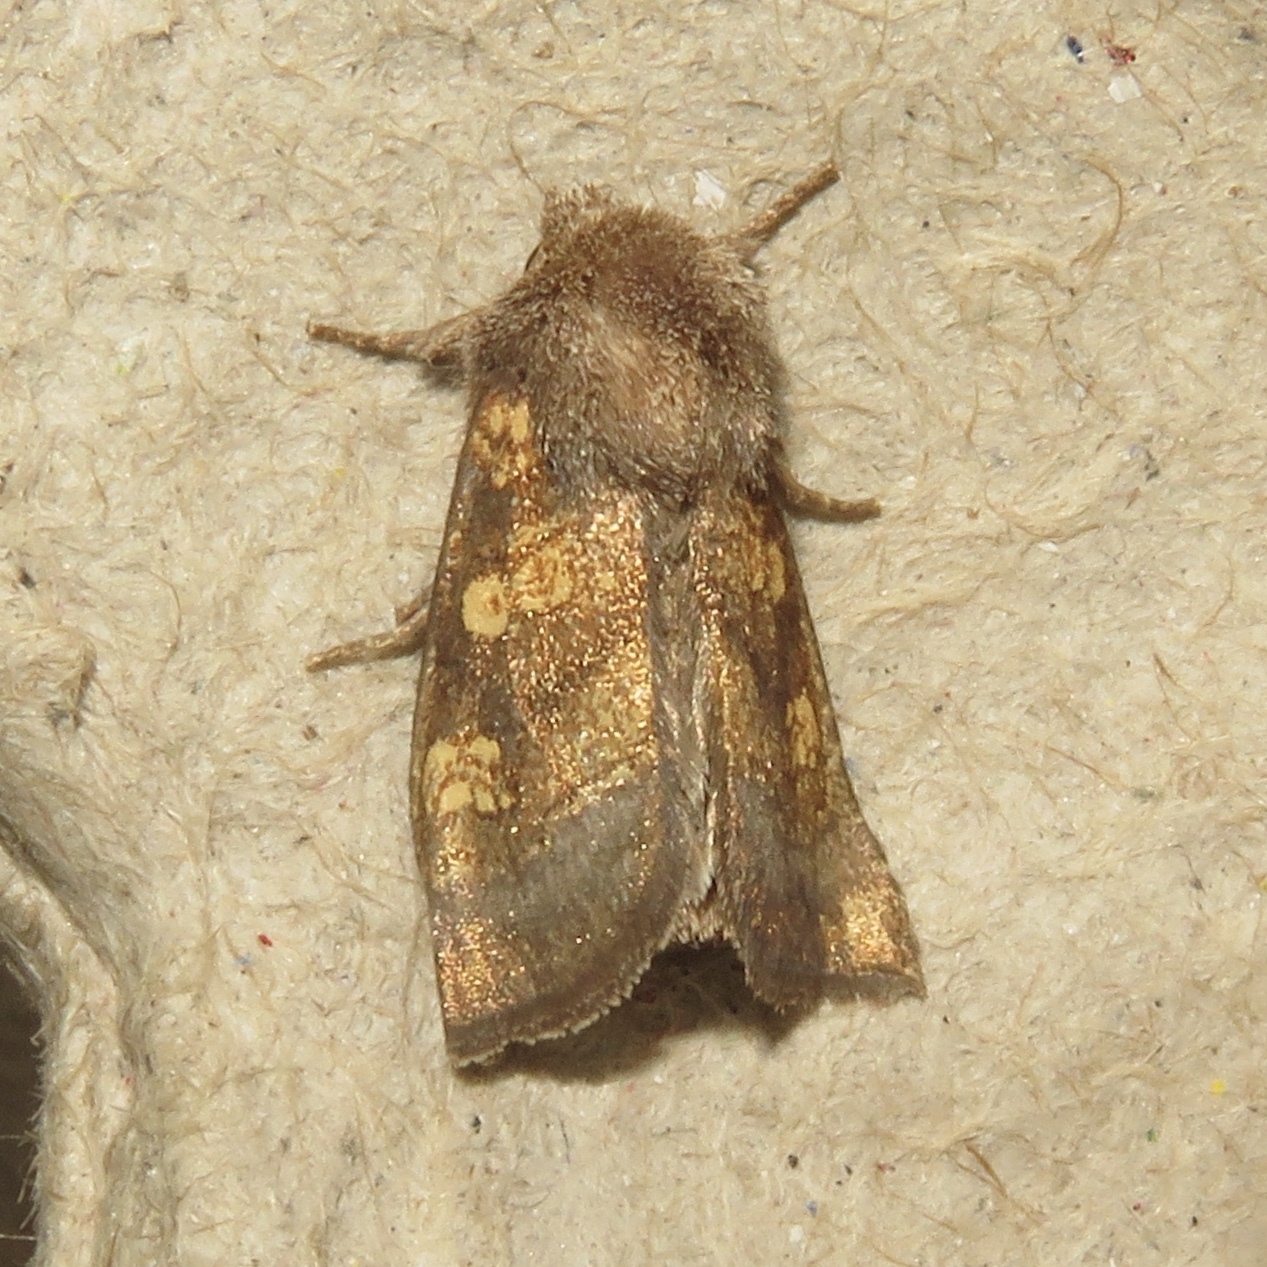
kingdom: Animalia
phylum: Arthropoda
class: Insecta
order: Lepidoptera
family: Noctuidae
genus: Papaipema
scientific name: Papaipema cataphracta
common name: Burdock borer
